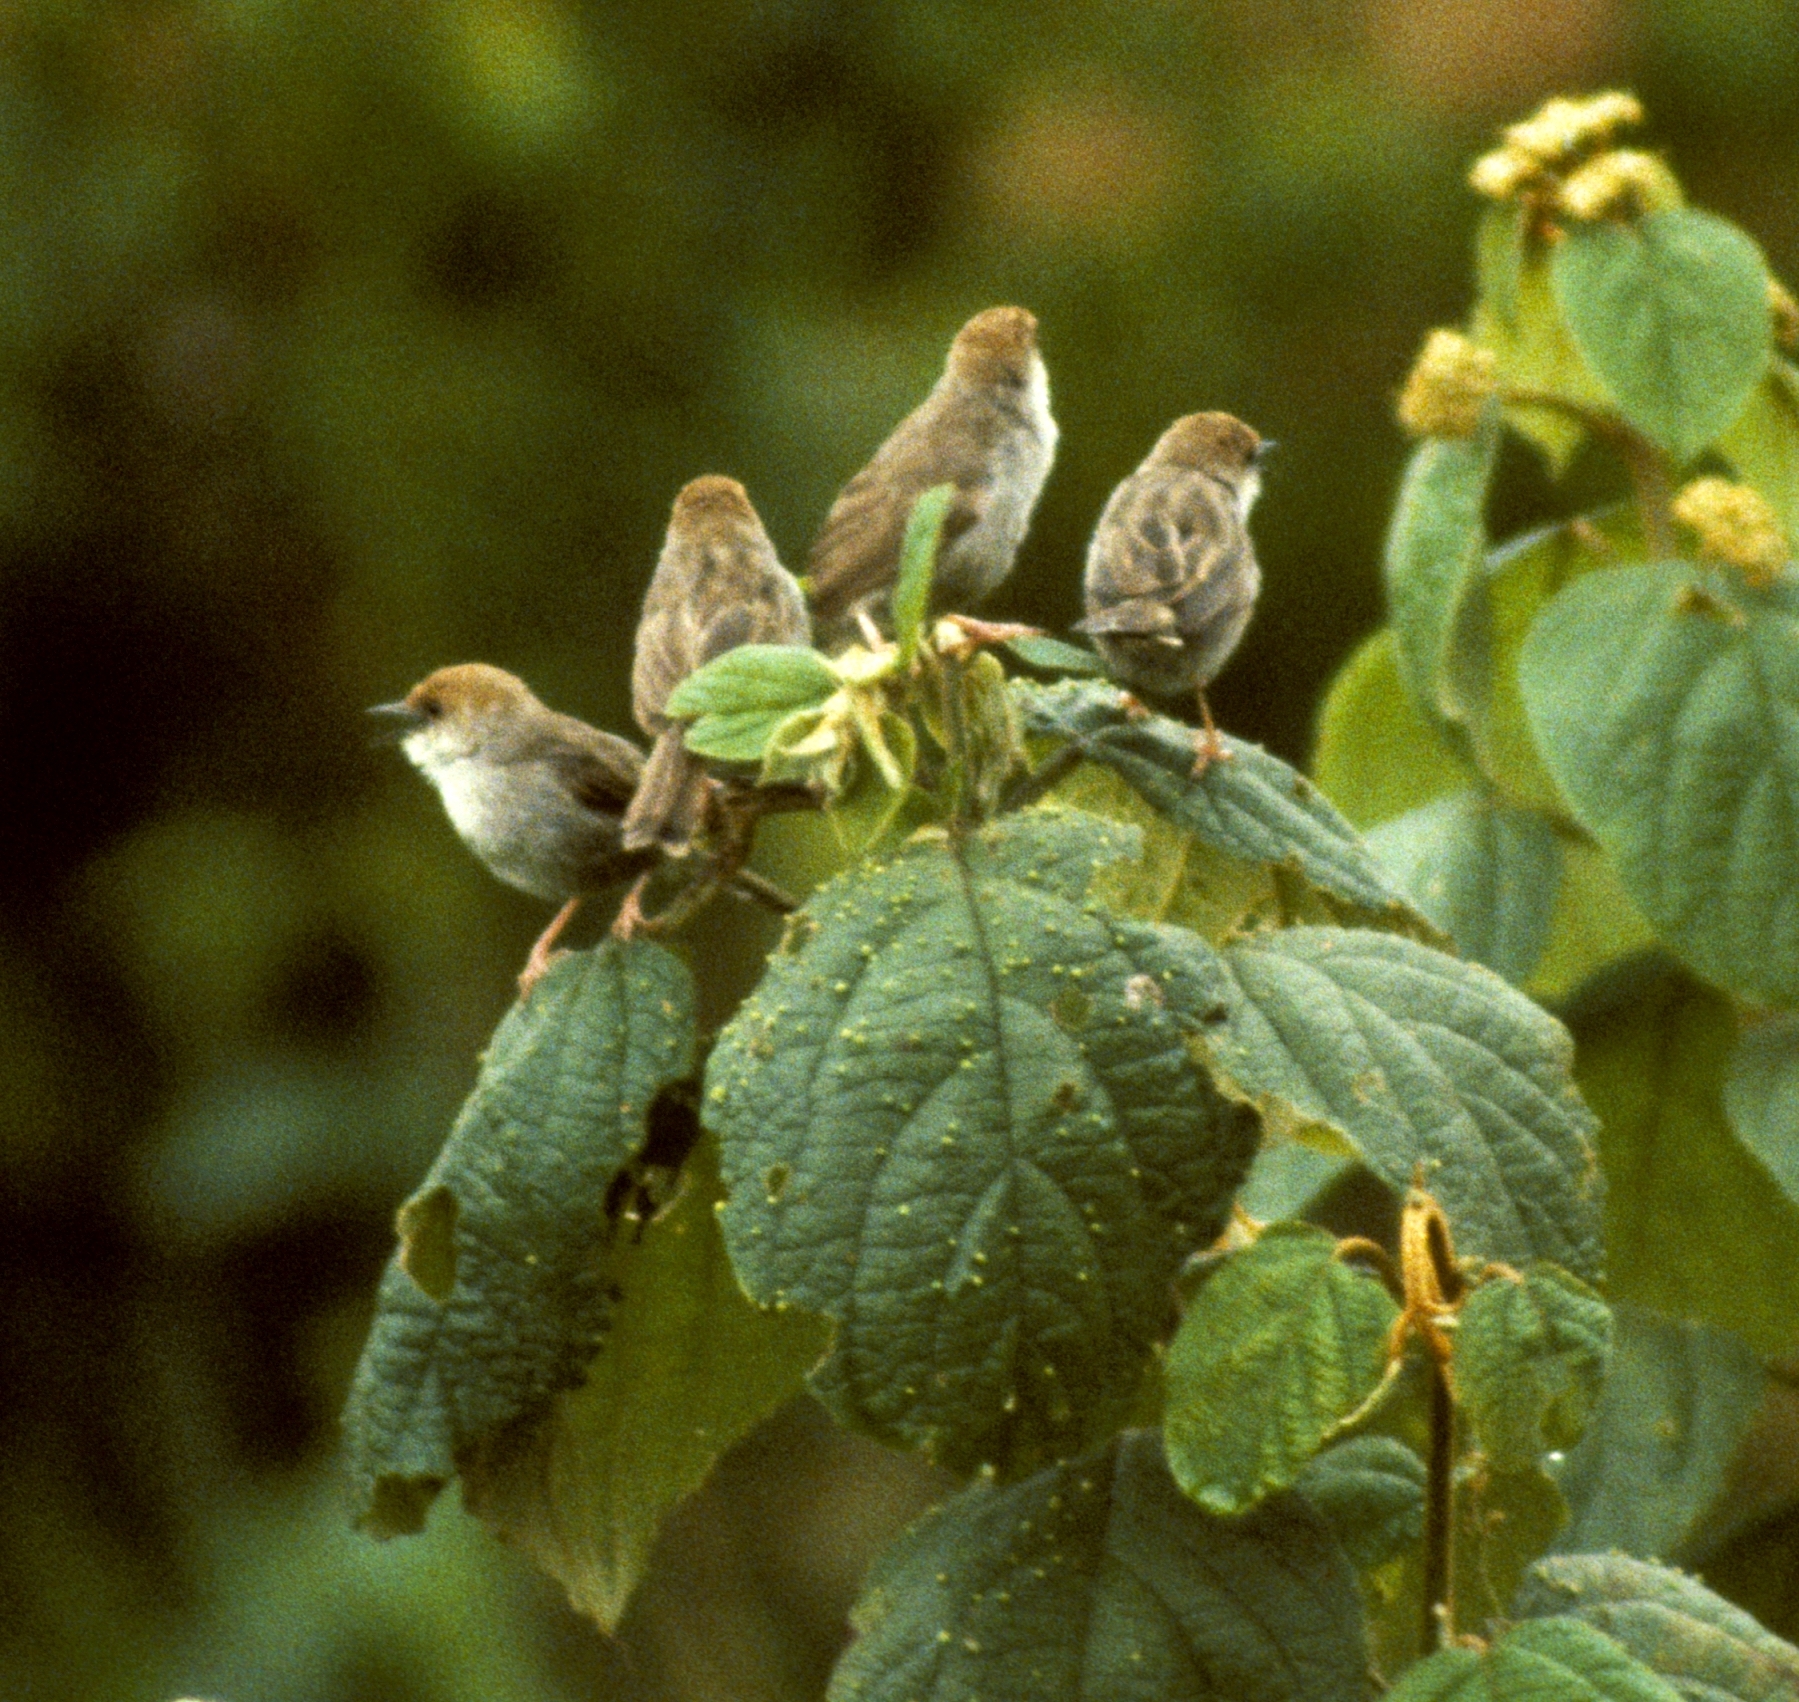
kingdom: Animalia
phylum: Chordata
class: Aves
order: Passeriformes
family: Cisticolidae
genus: Cisticola
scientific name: Cisticola hunteri
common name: Hunter's cisticola
